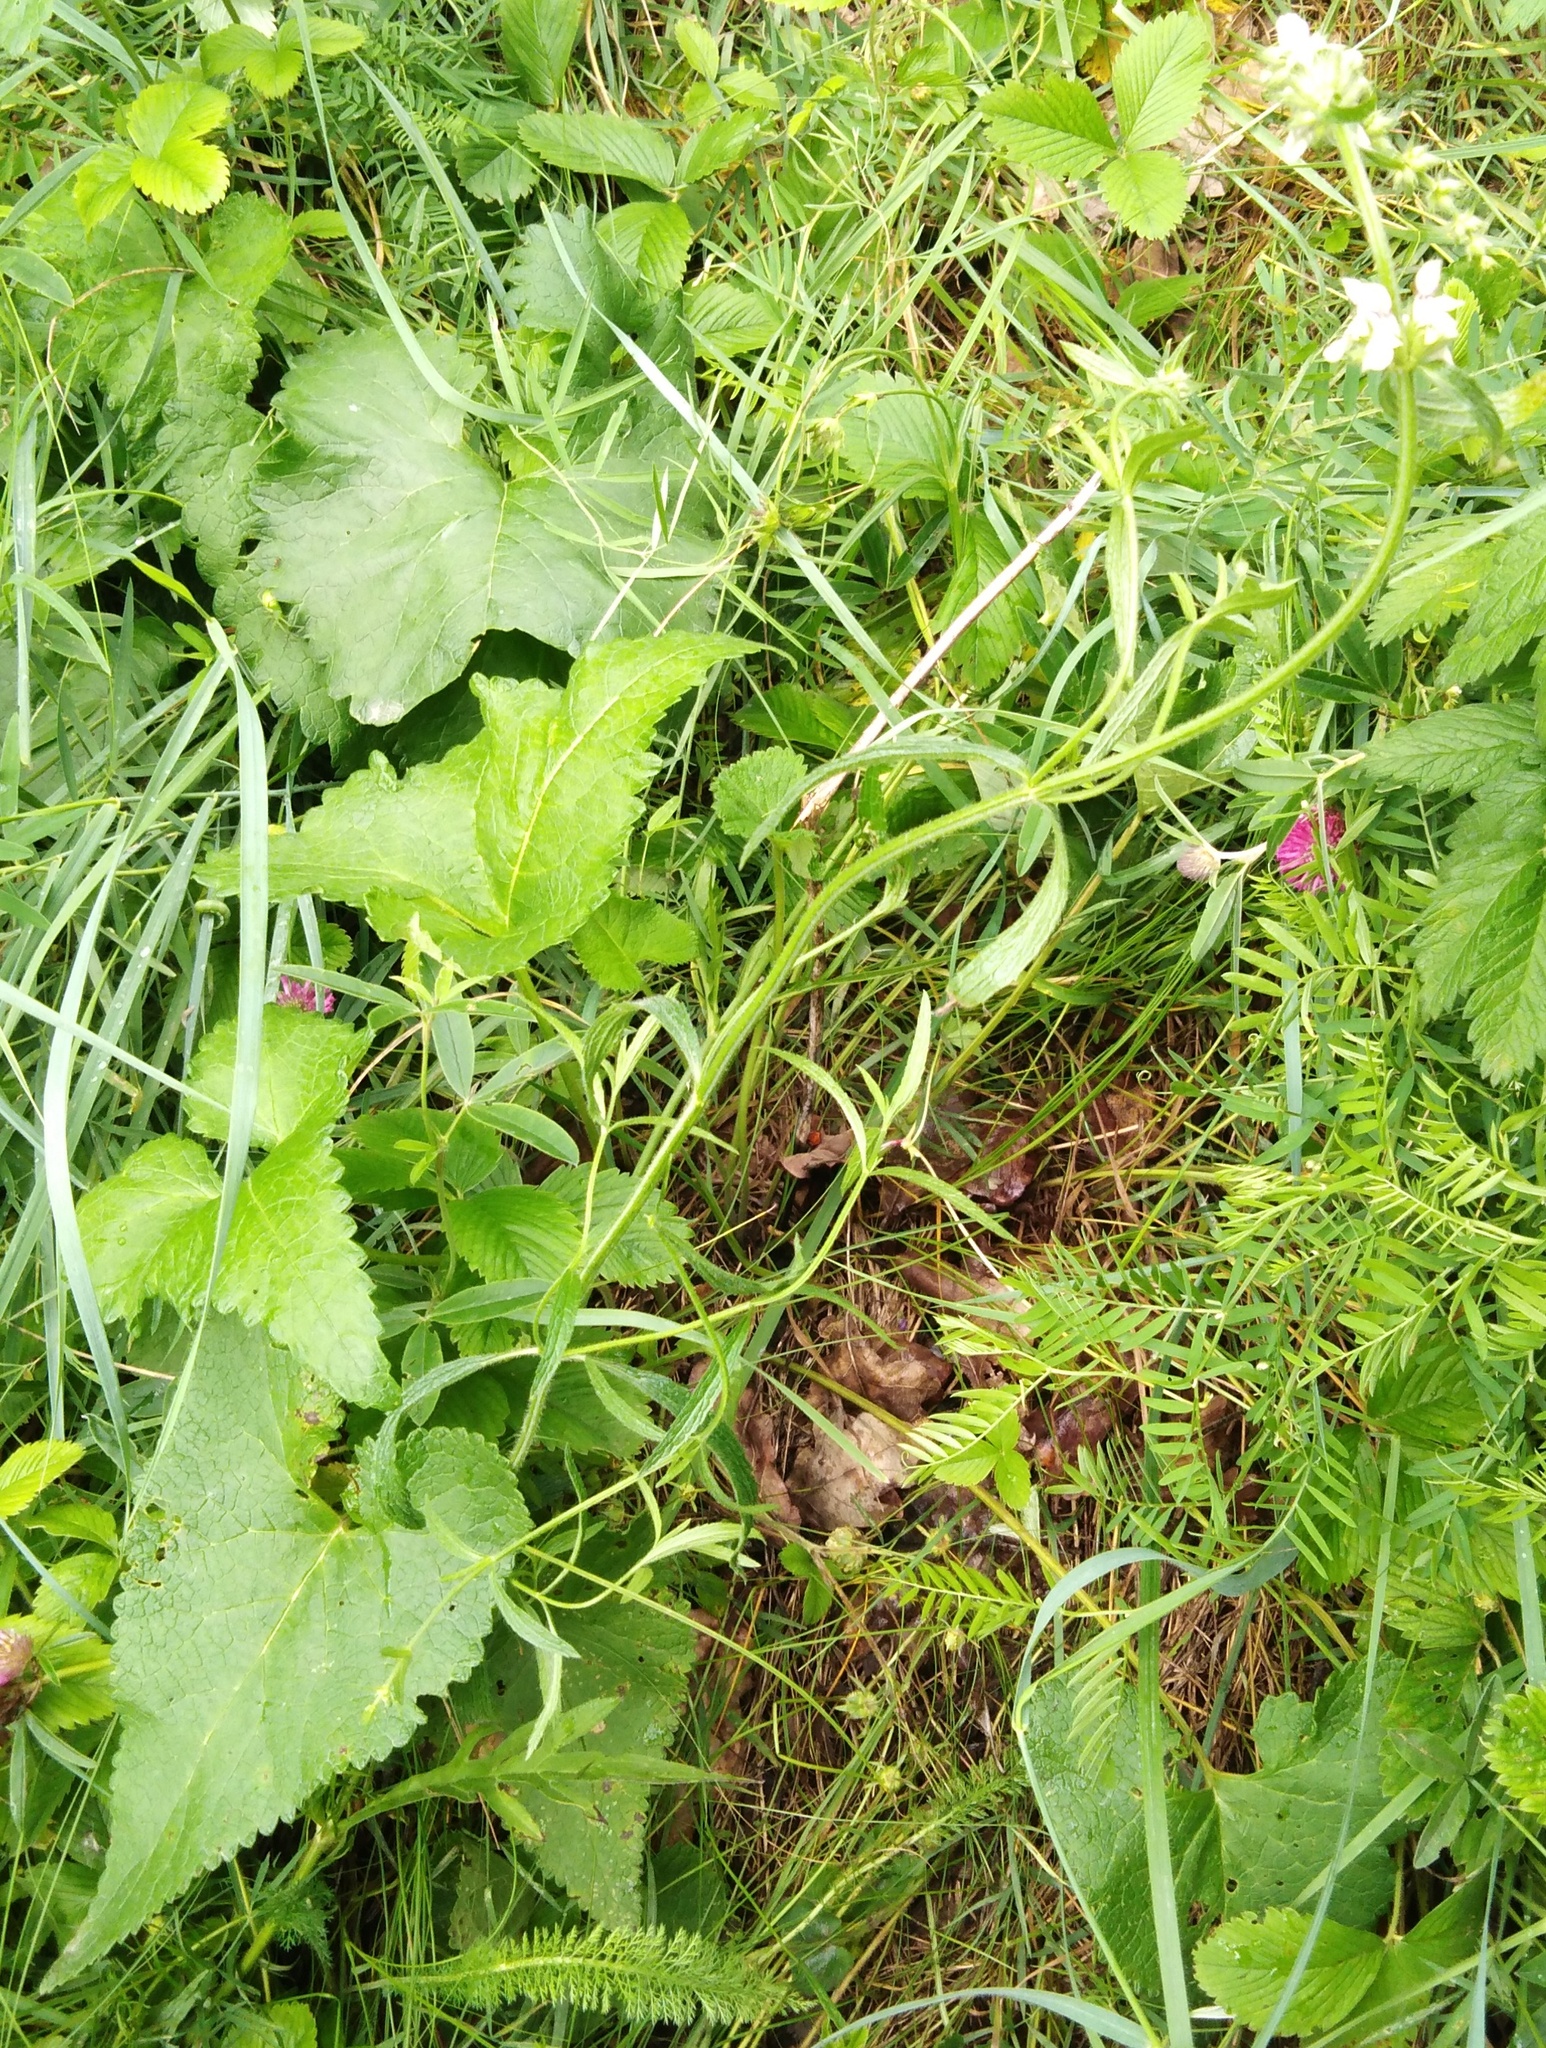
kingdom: Plantae
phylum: Tracheophyta
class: Magnoliopsida
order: Lamiales
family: Lamiaceae
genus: Phlomoides
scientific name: Phlomoides tuberosa
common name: Tuberous jerusalem sage
